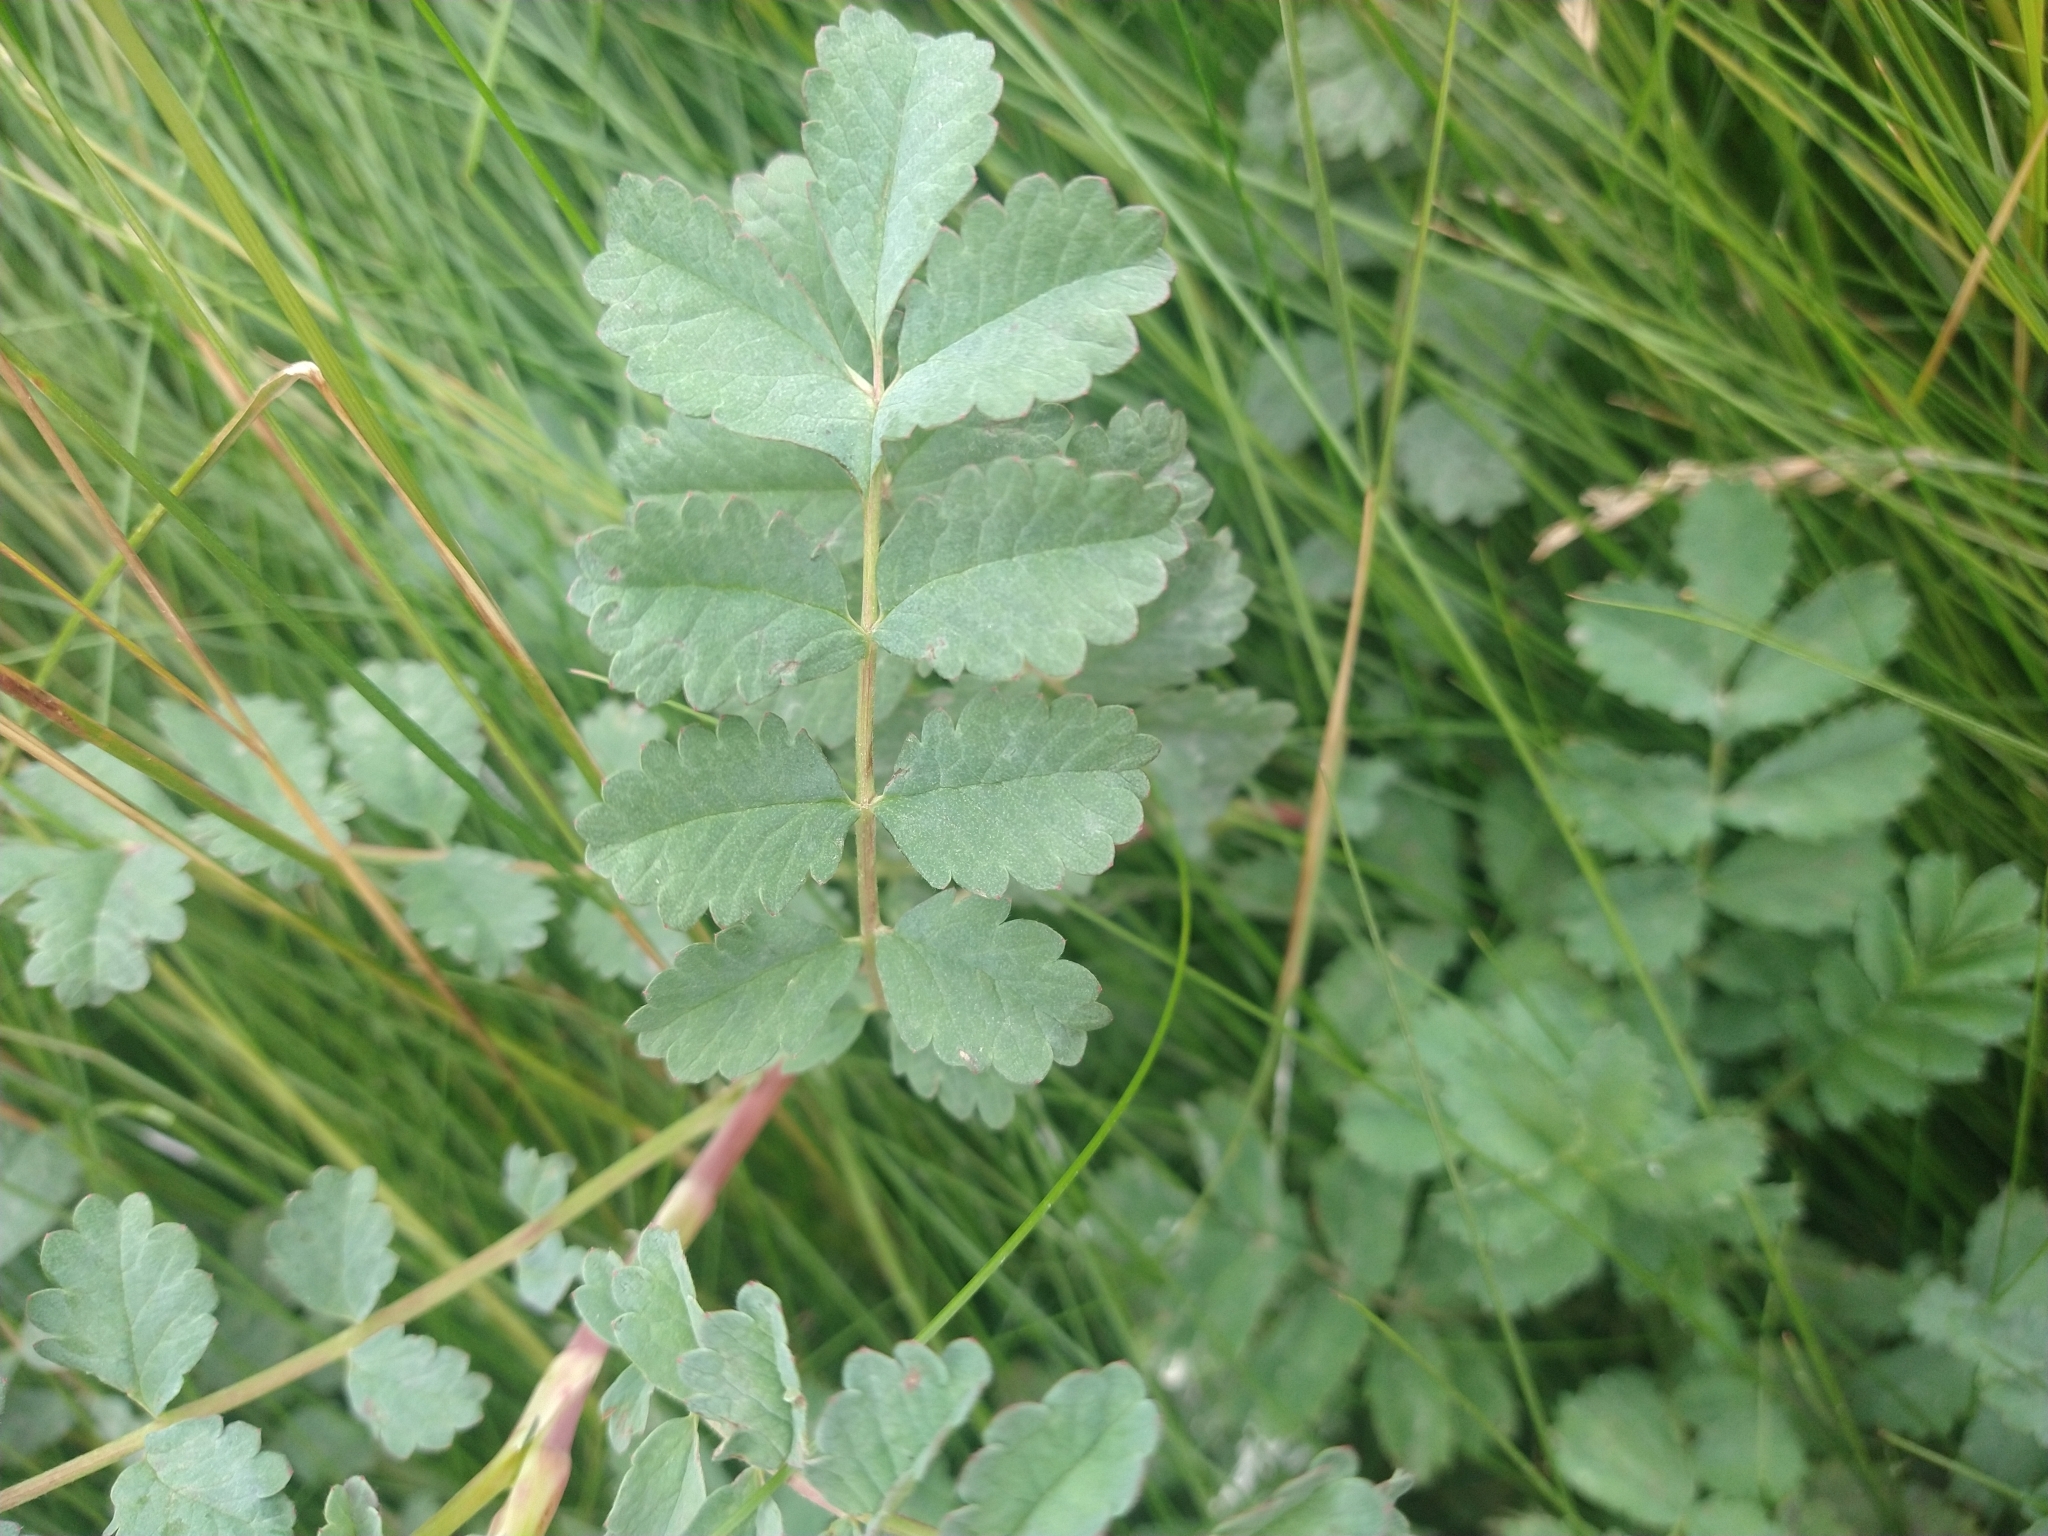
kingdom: Plantae
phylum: Tracheophyta
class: Magnoliopsida
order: Rosales
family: Rosaceae
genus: Acaena
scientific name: Acaena magellanica
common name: New zealand burr
